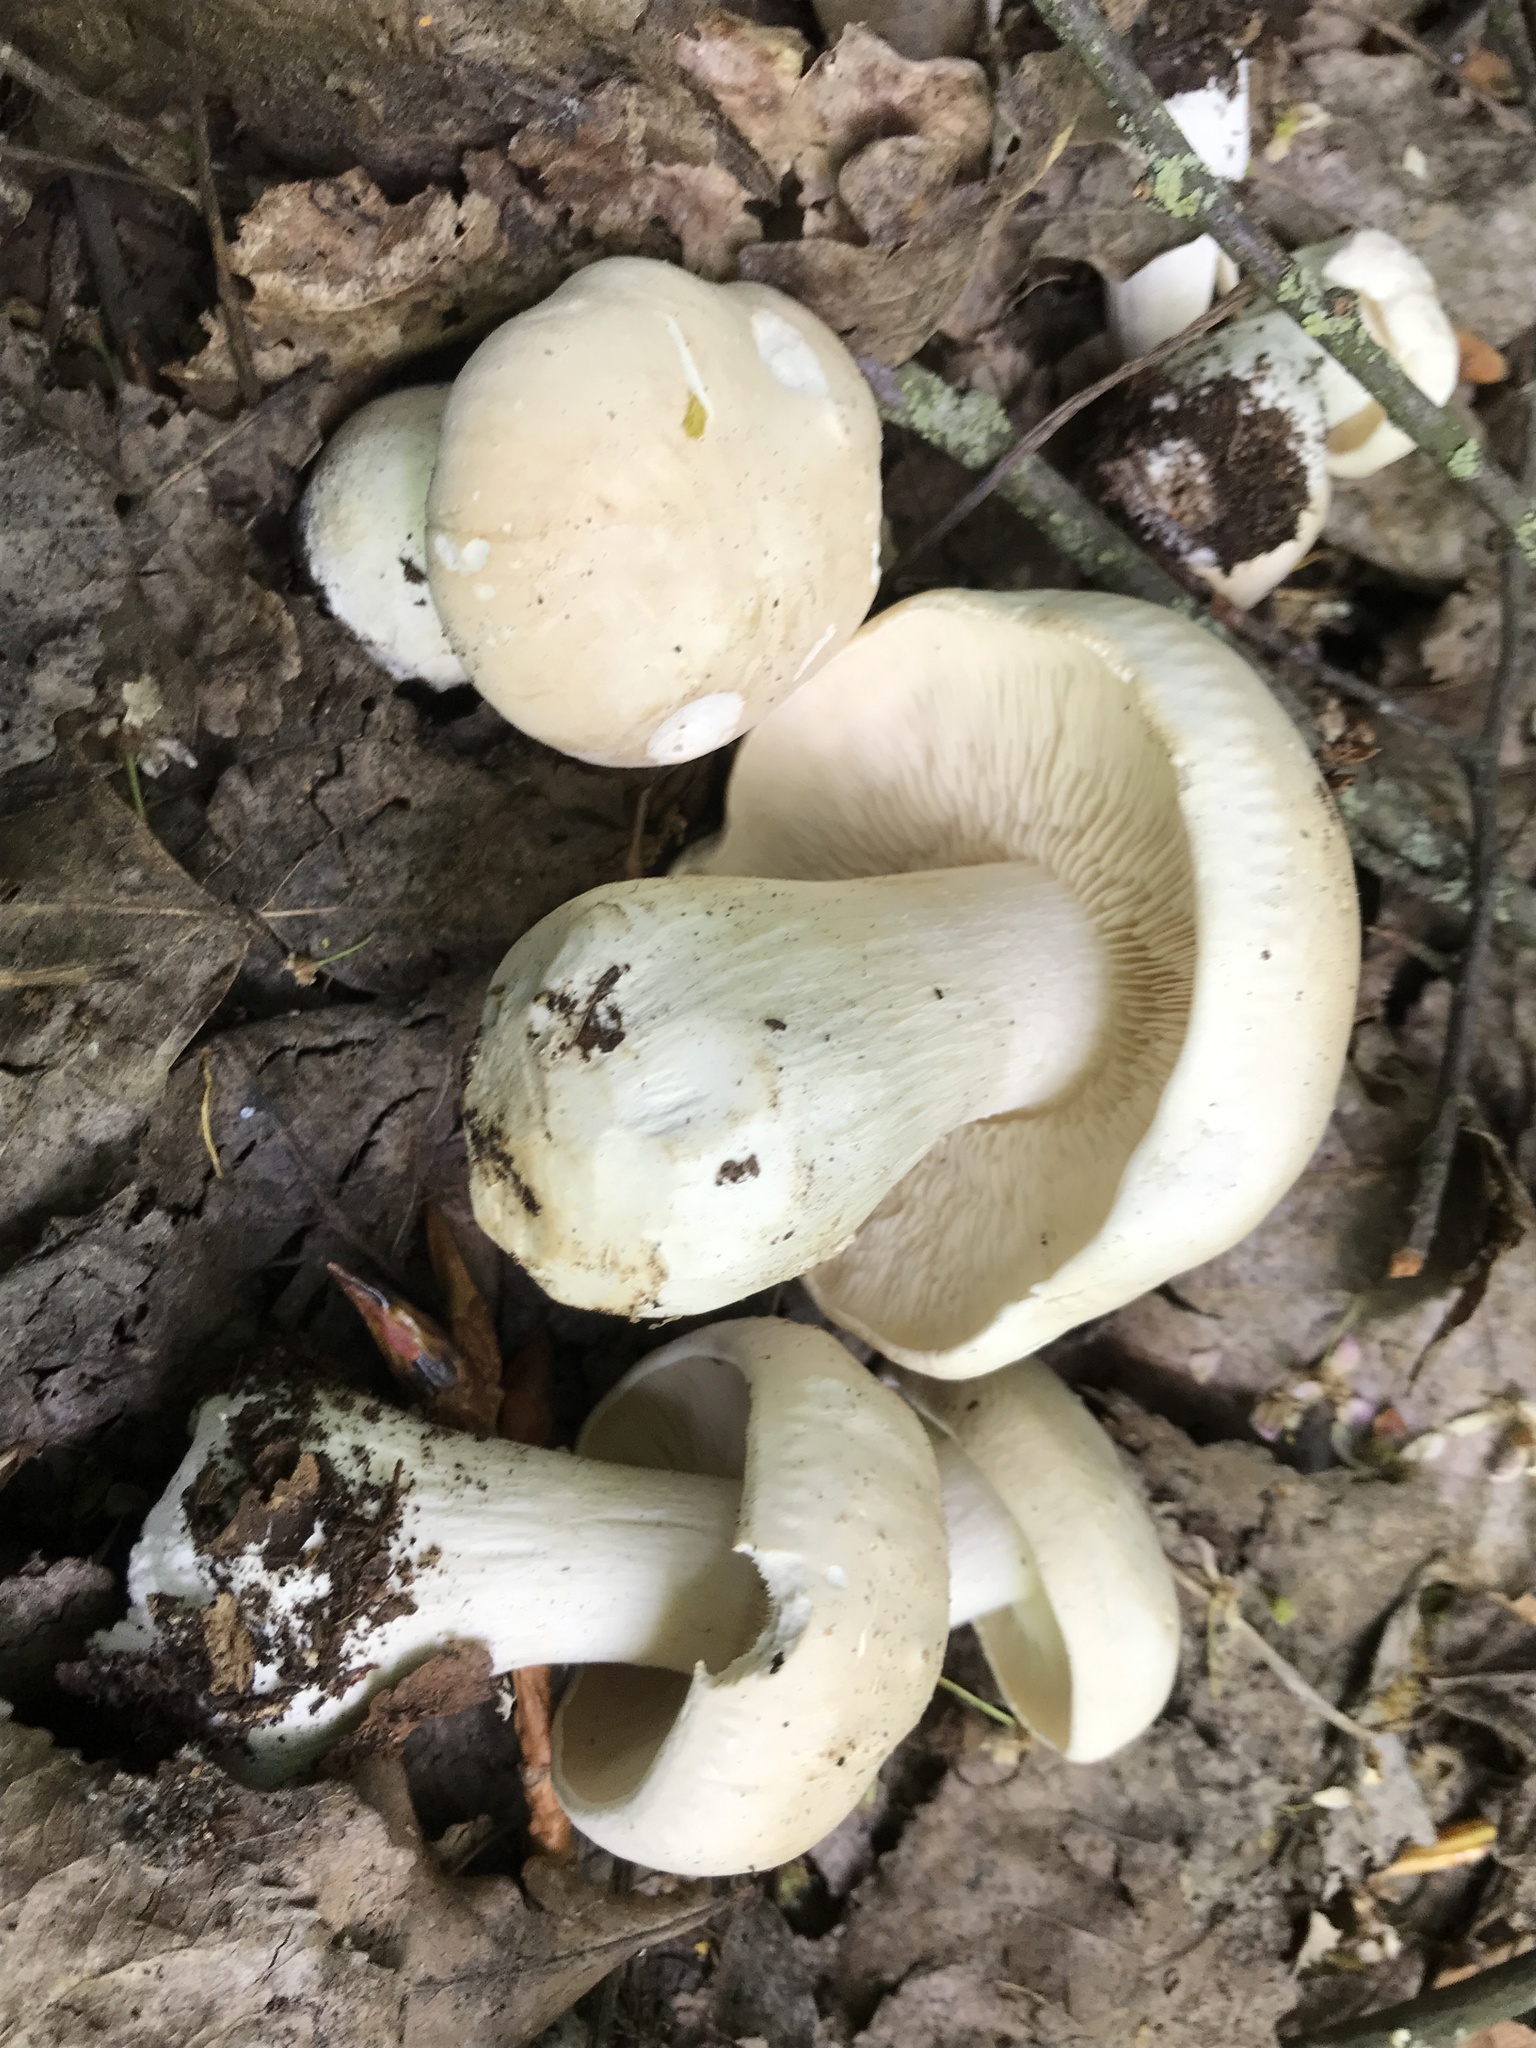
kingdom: Fungi
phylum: Basidiomycota
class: Agaricomycetes
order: Agaricales
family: Lyophyllaceae
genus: Calocybe
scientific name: Calocybe gambosa
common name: St. george's mushroom
